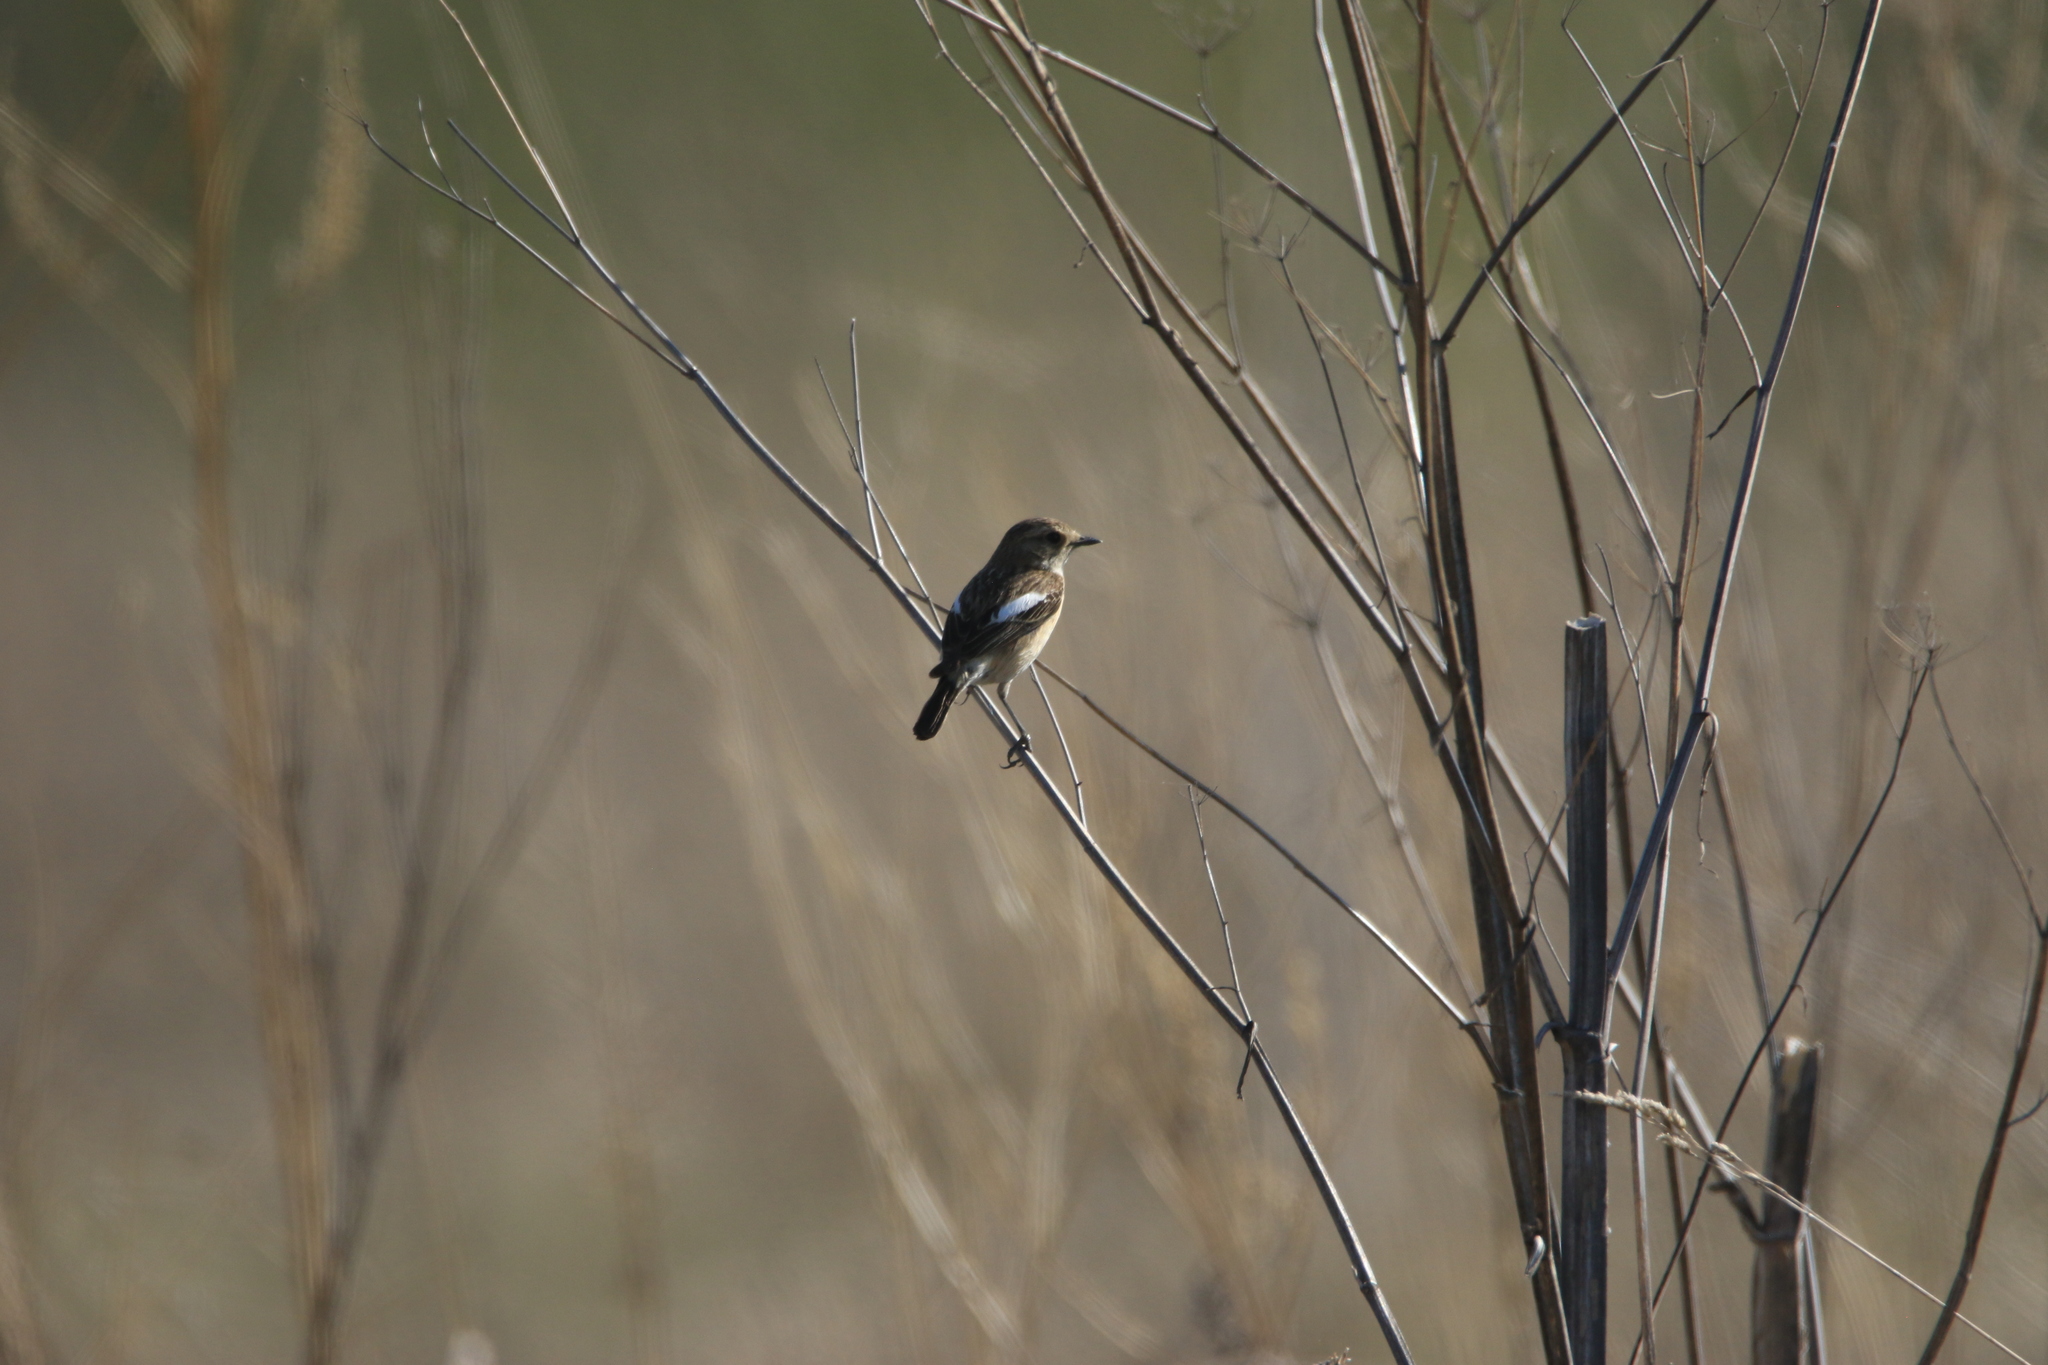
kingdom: Animalia
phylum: Chordata
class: Aves
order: Passeriformes
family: Muscicapidae
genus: Saxicola
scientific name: Saxicola maurus
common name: Siberian stonechat
